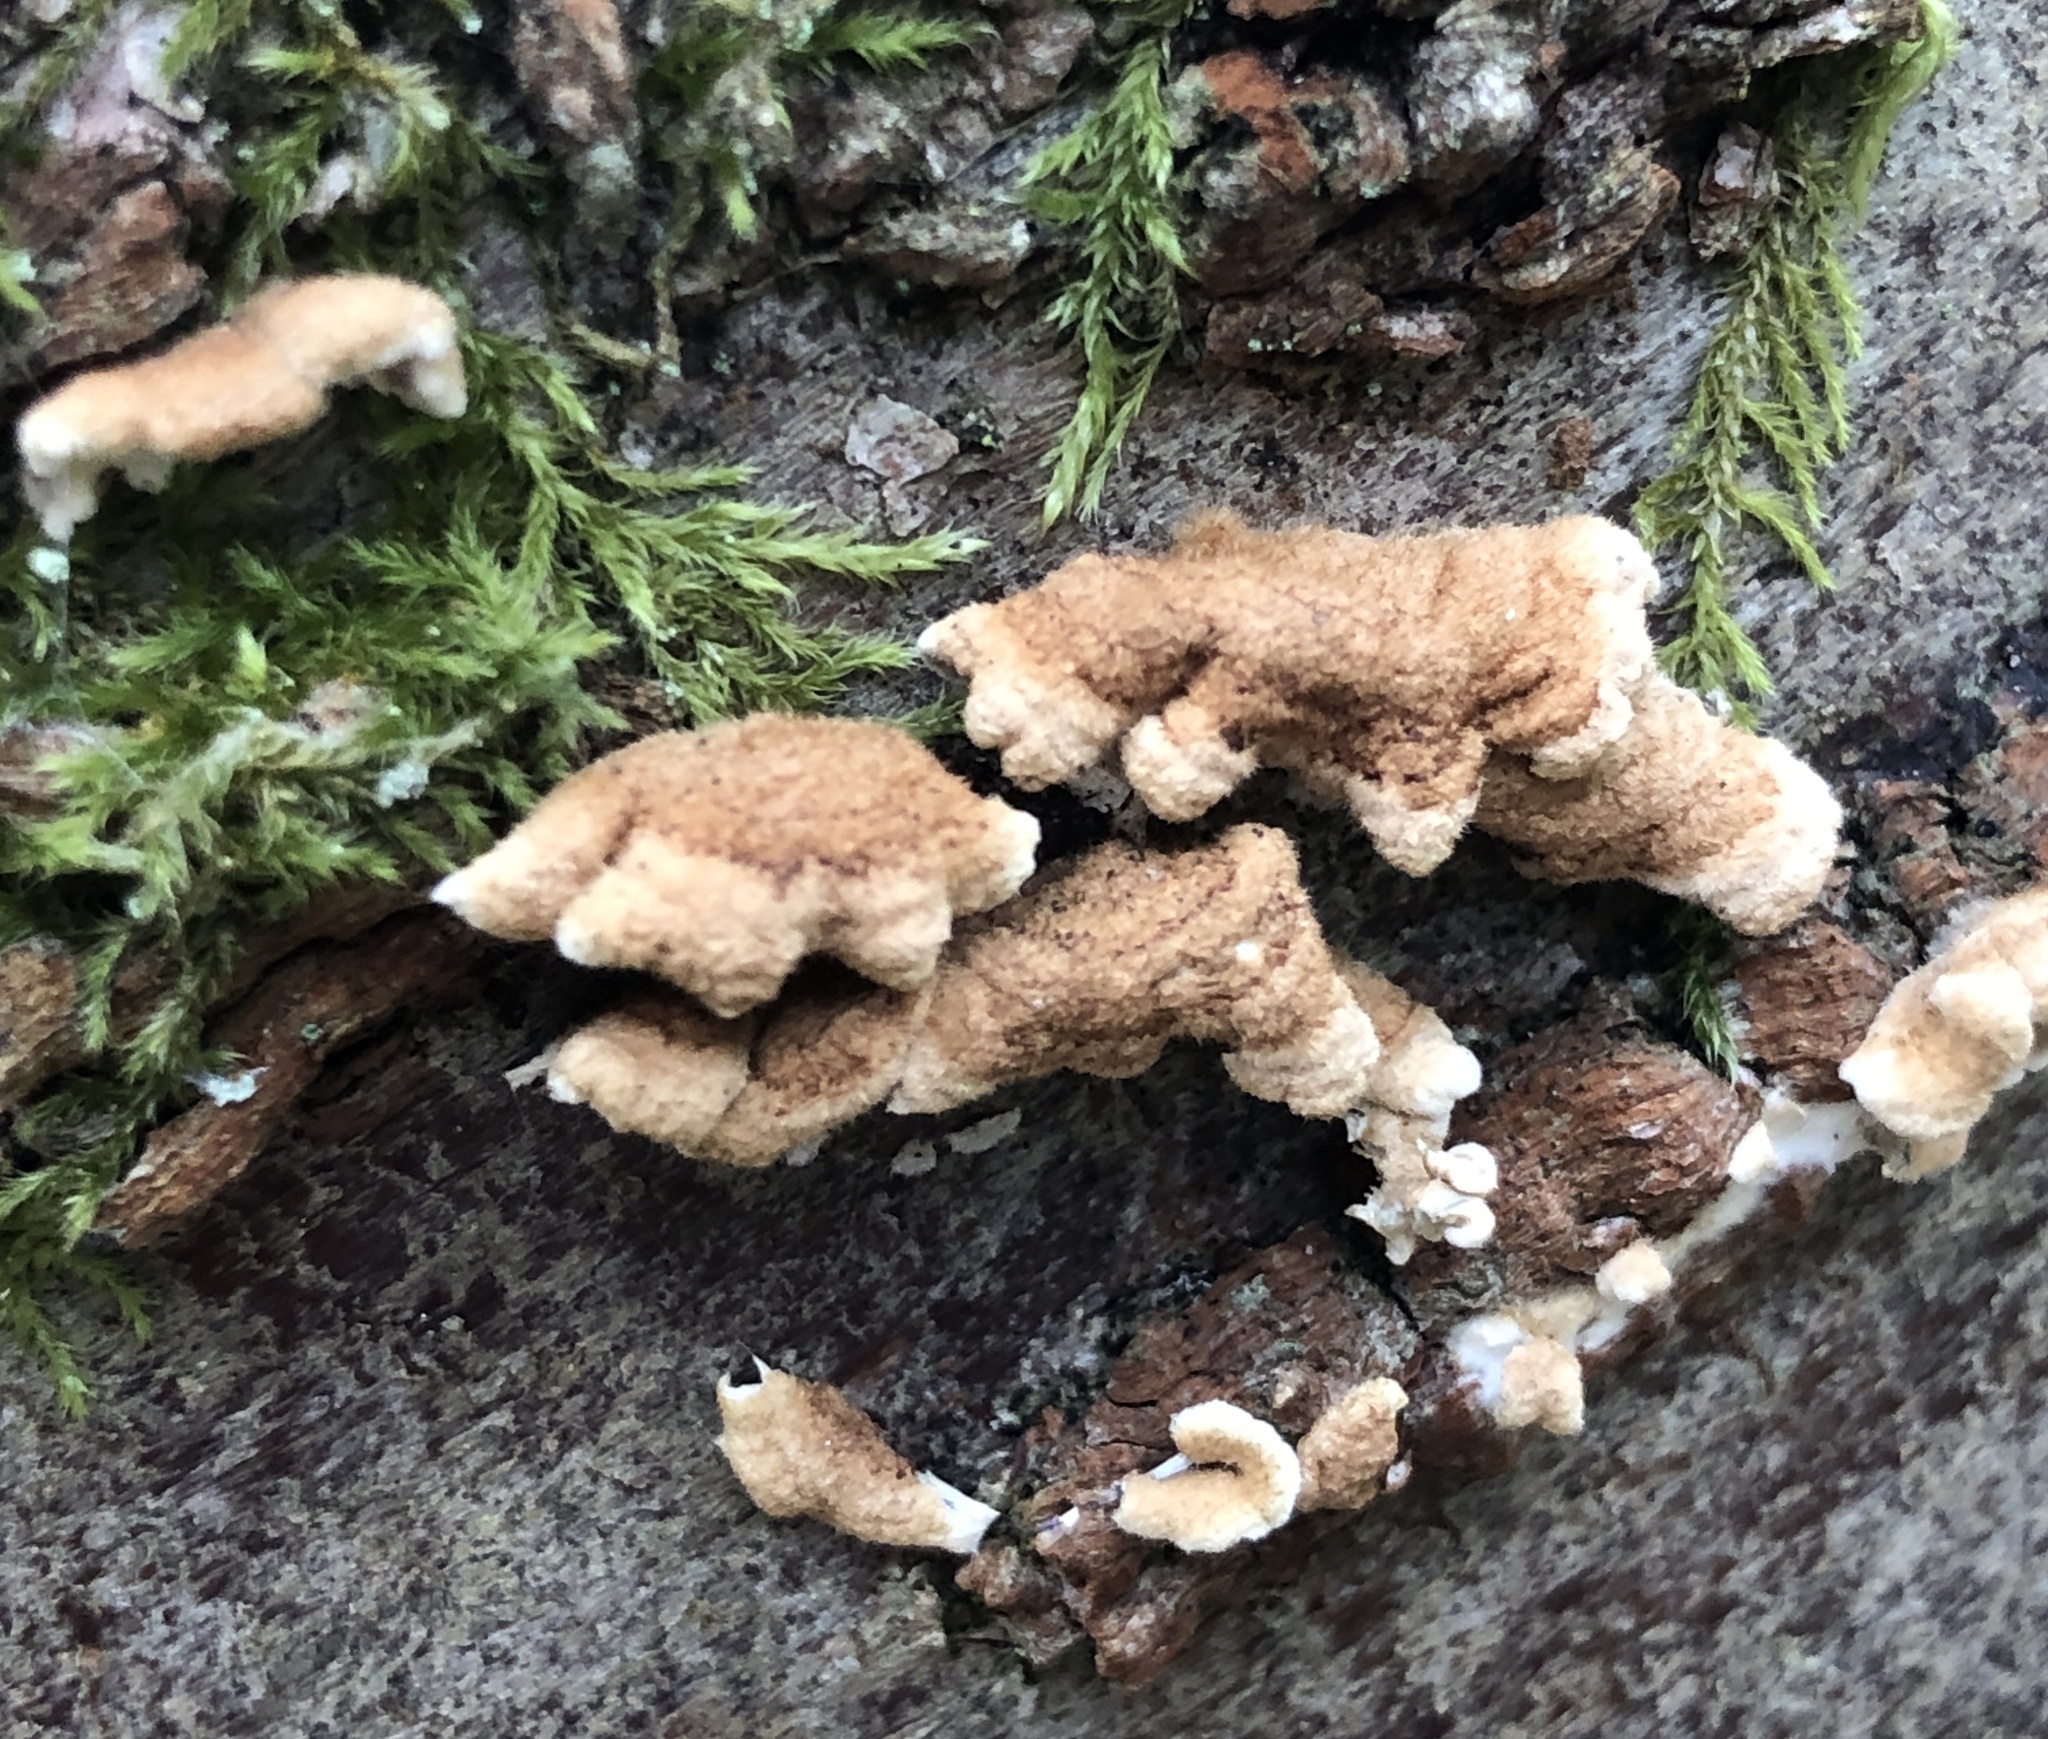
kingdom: Fungi
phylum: Basidiomycota
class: Agaricomycetes
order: Amylocorticiales
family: Amylocorticiaceae
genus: Plicaturopsis
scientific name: Plicaturopsis crispa
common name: Crimped gill
